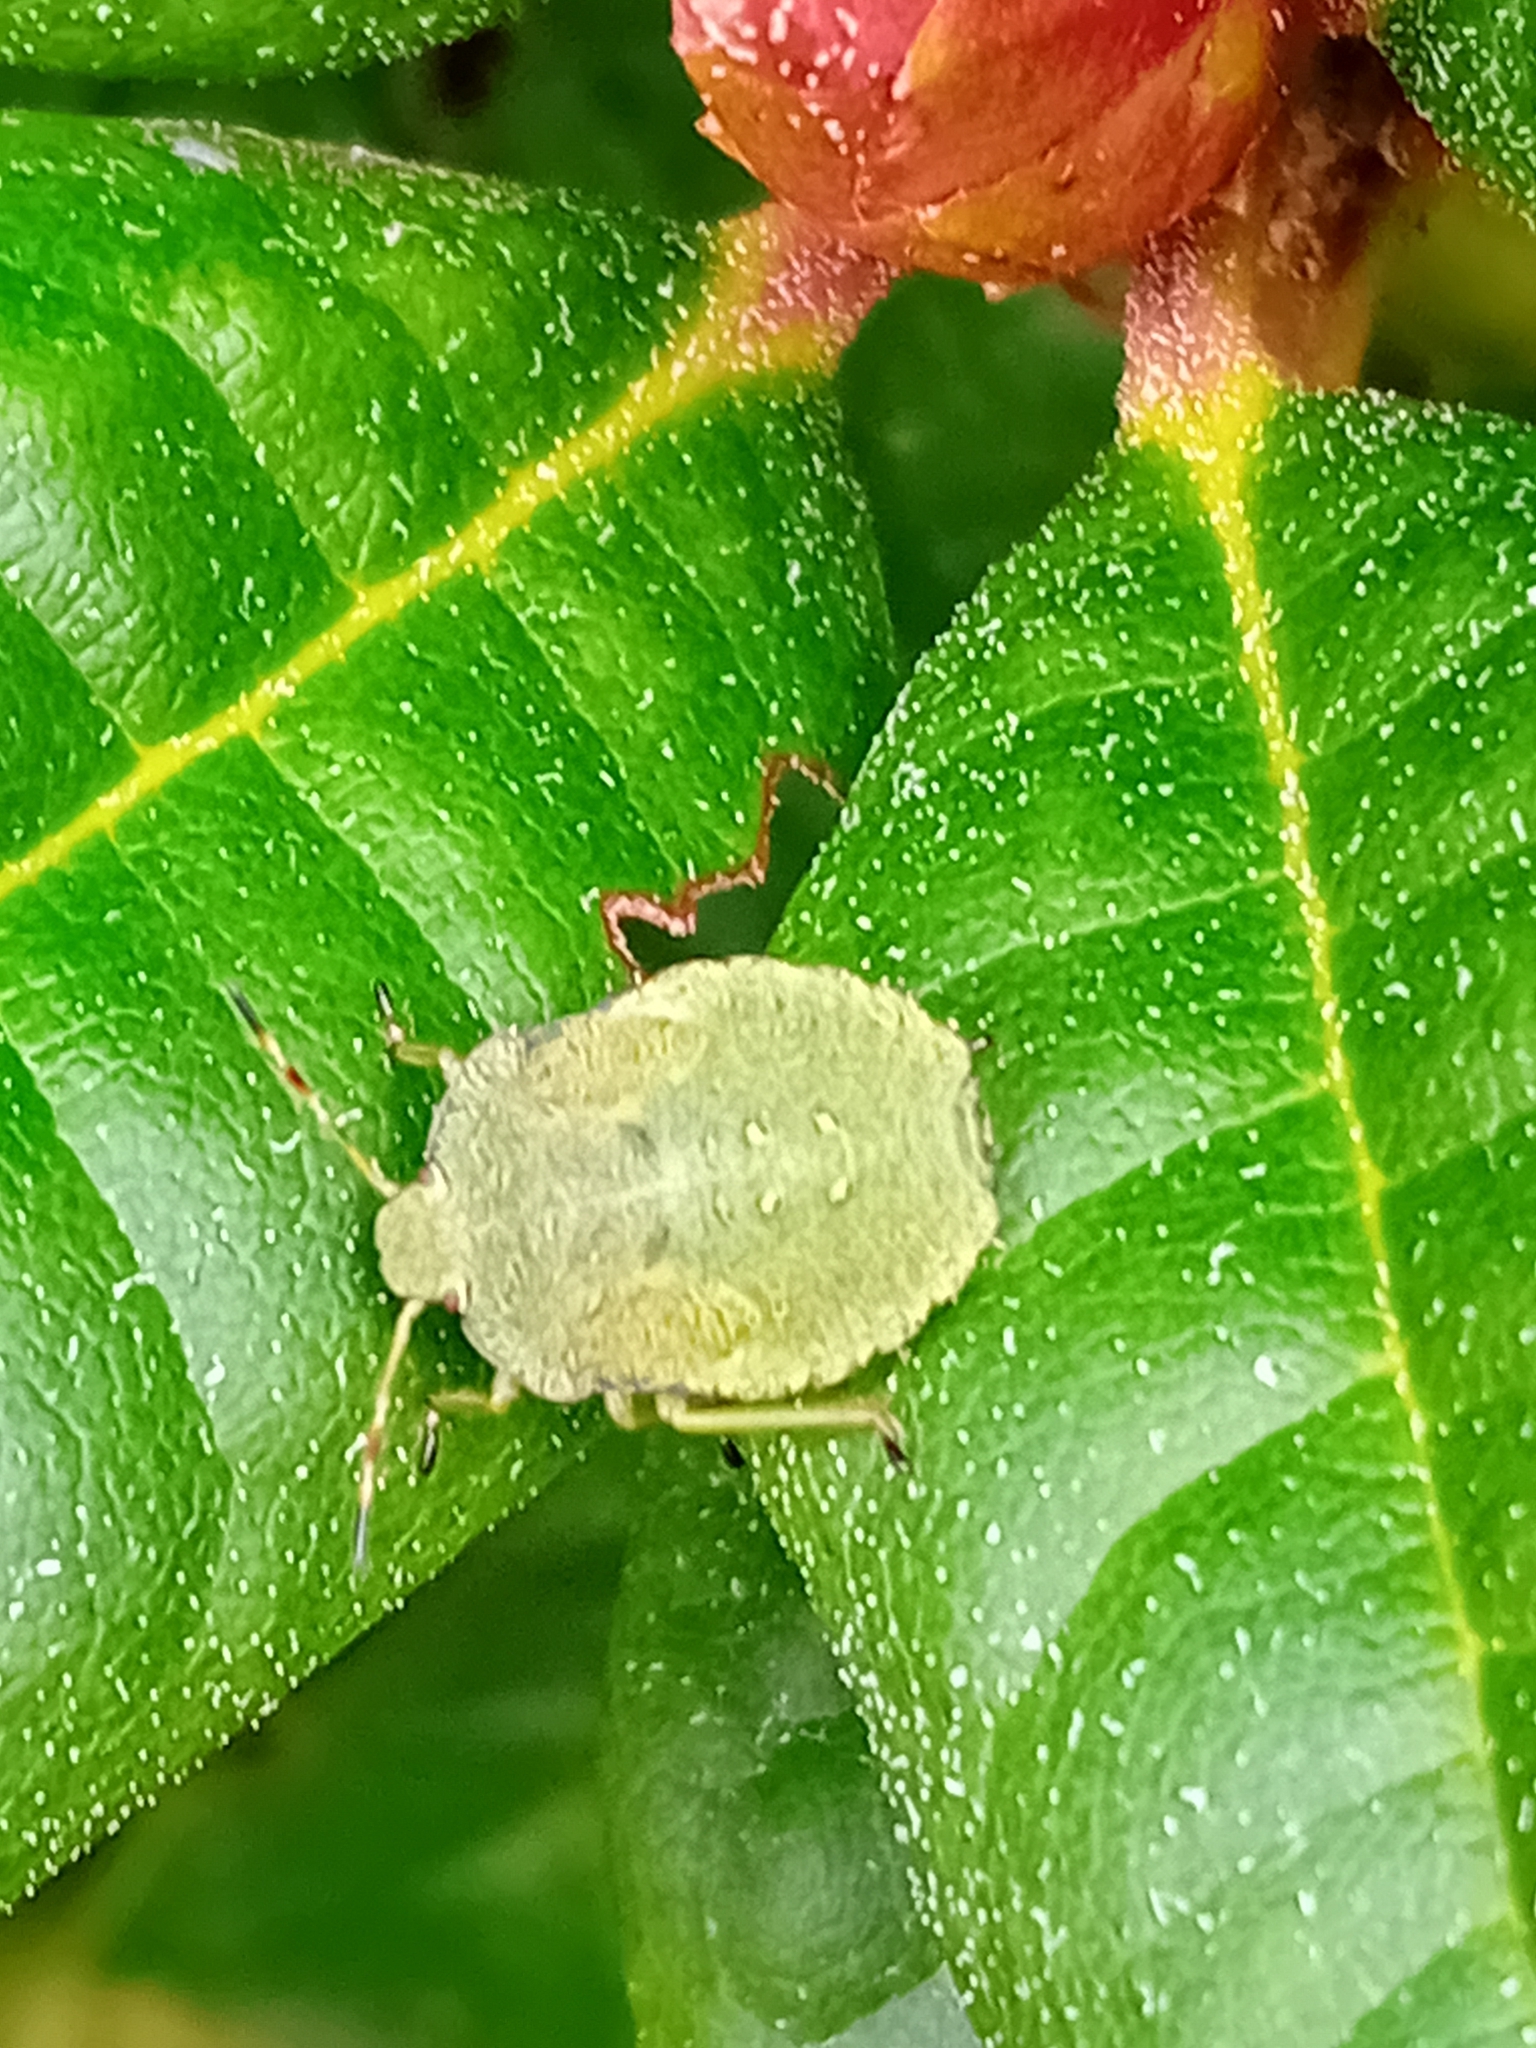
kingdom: Animalia
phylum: Arthropoda
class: Insecta
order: Hemiptera
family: Pentatomidae
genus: Palomena
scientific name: Palomena prasina
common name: Green shieldbug
